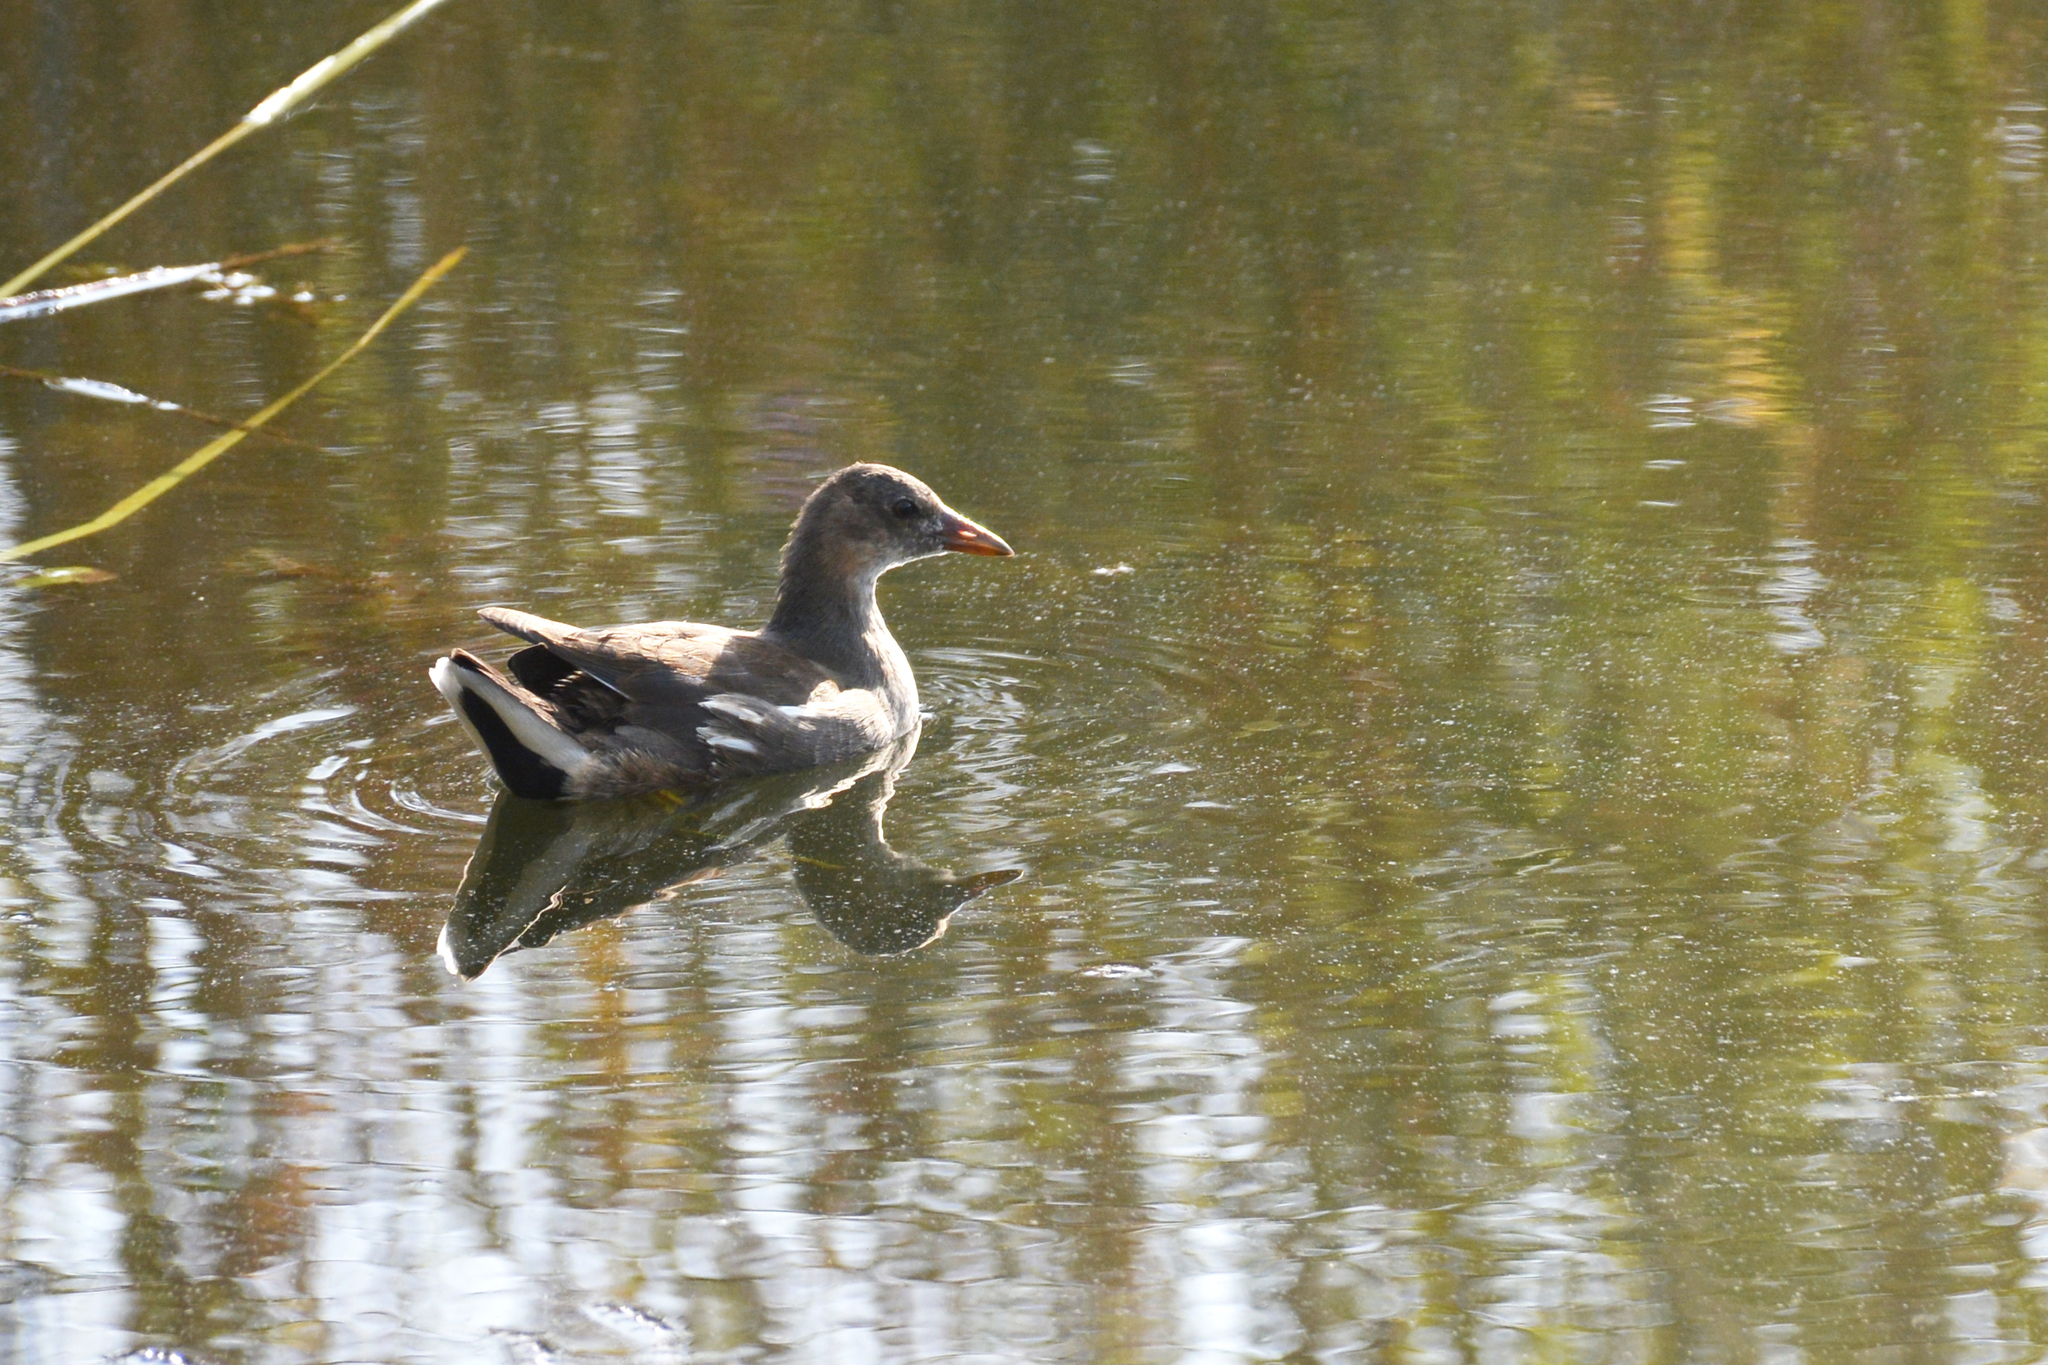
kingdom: Animalia
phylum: Chordata
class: Aves
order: Gruiformes
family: Rallidae
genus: Gallinula
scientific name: Gallinula chloropus
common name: Common moorhen
